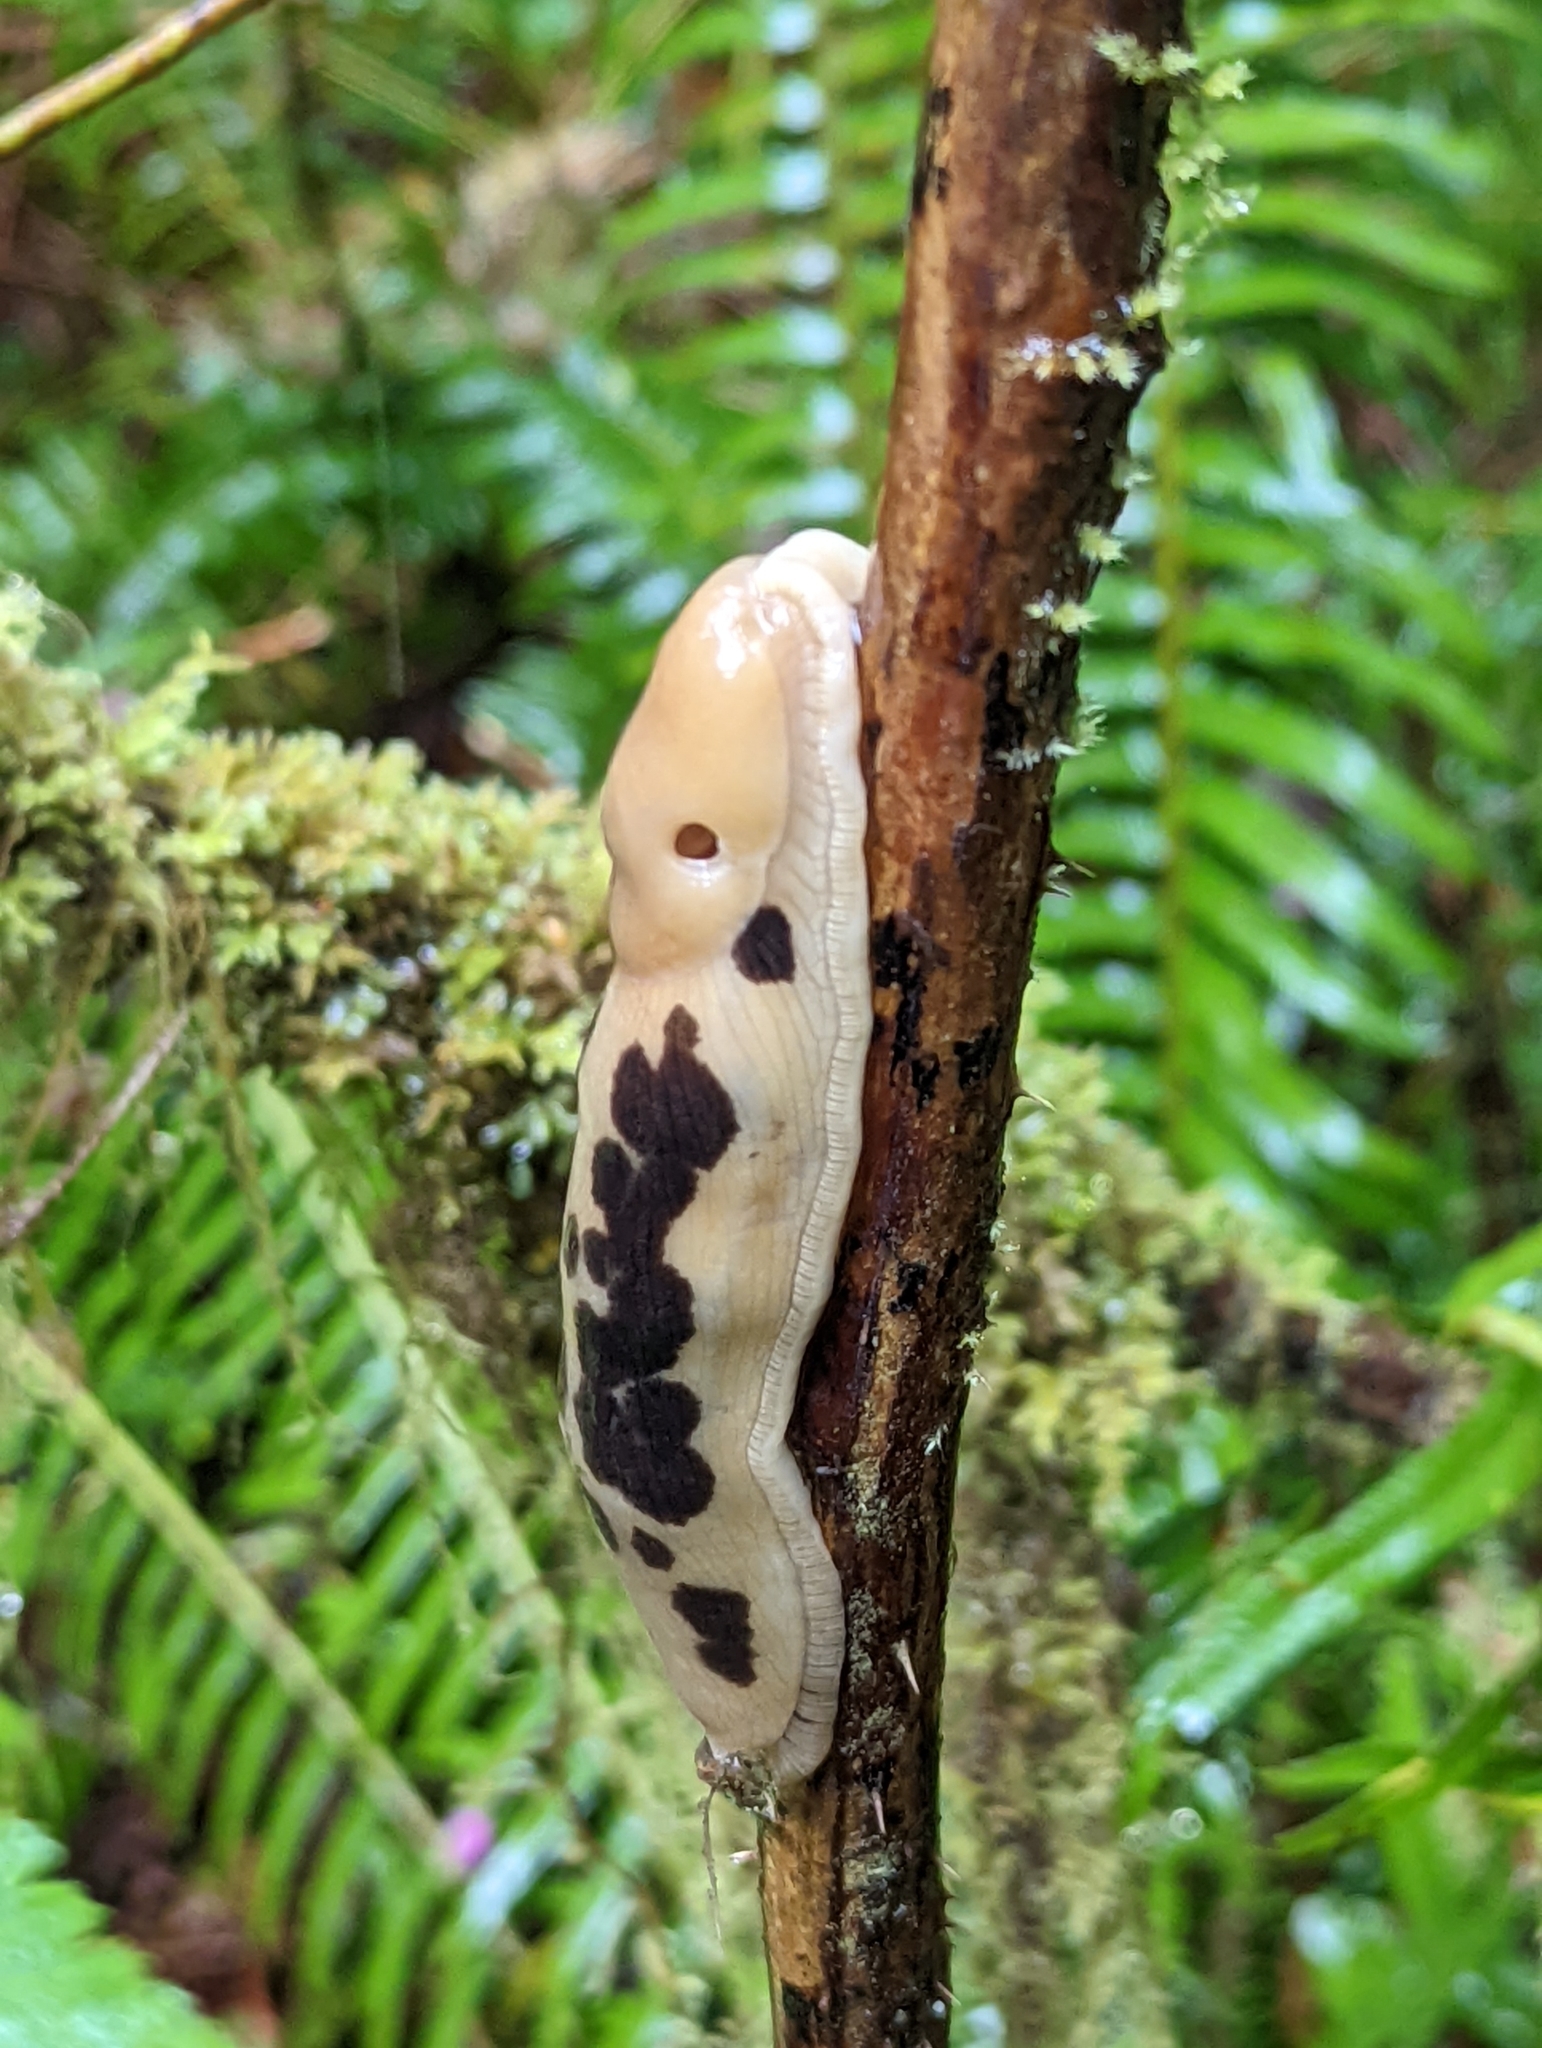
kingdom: Animalia
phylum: Mollusca
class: Gastropoda
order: Stylommatophora
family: Ariolimacidae
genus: Ariolimax
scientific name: Ariolimax columbianus
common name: Pacific banana slug
